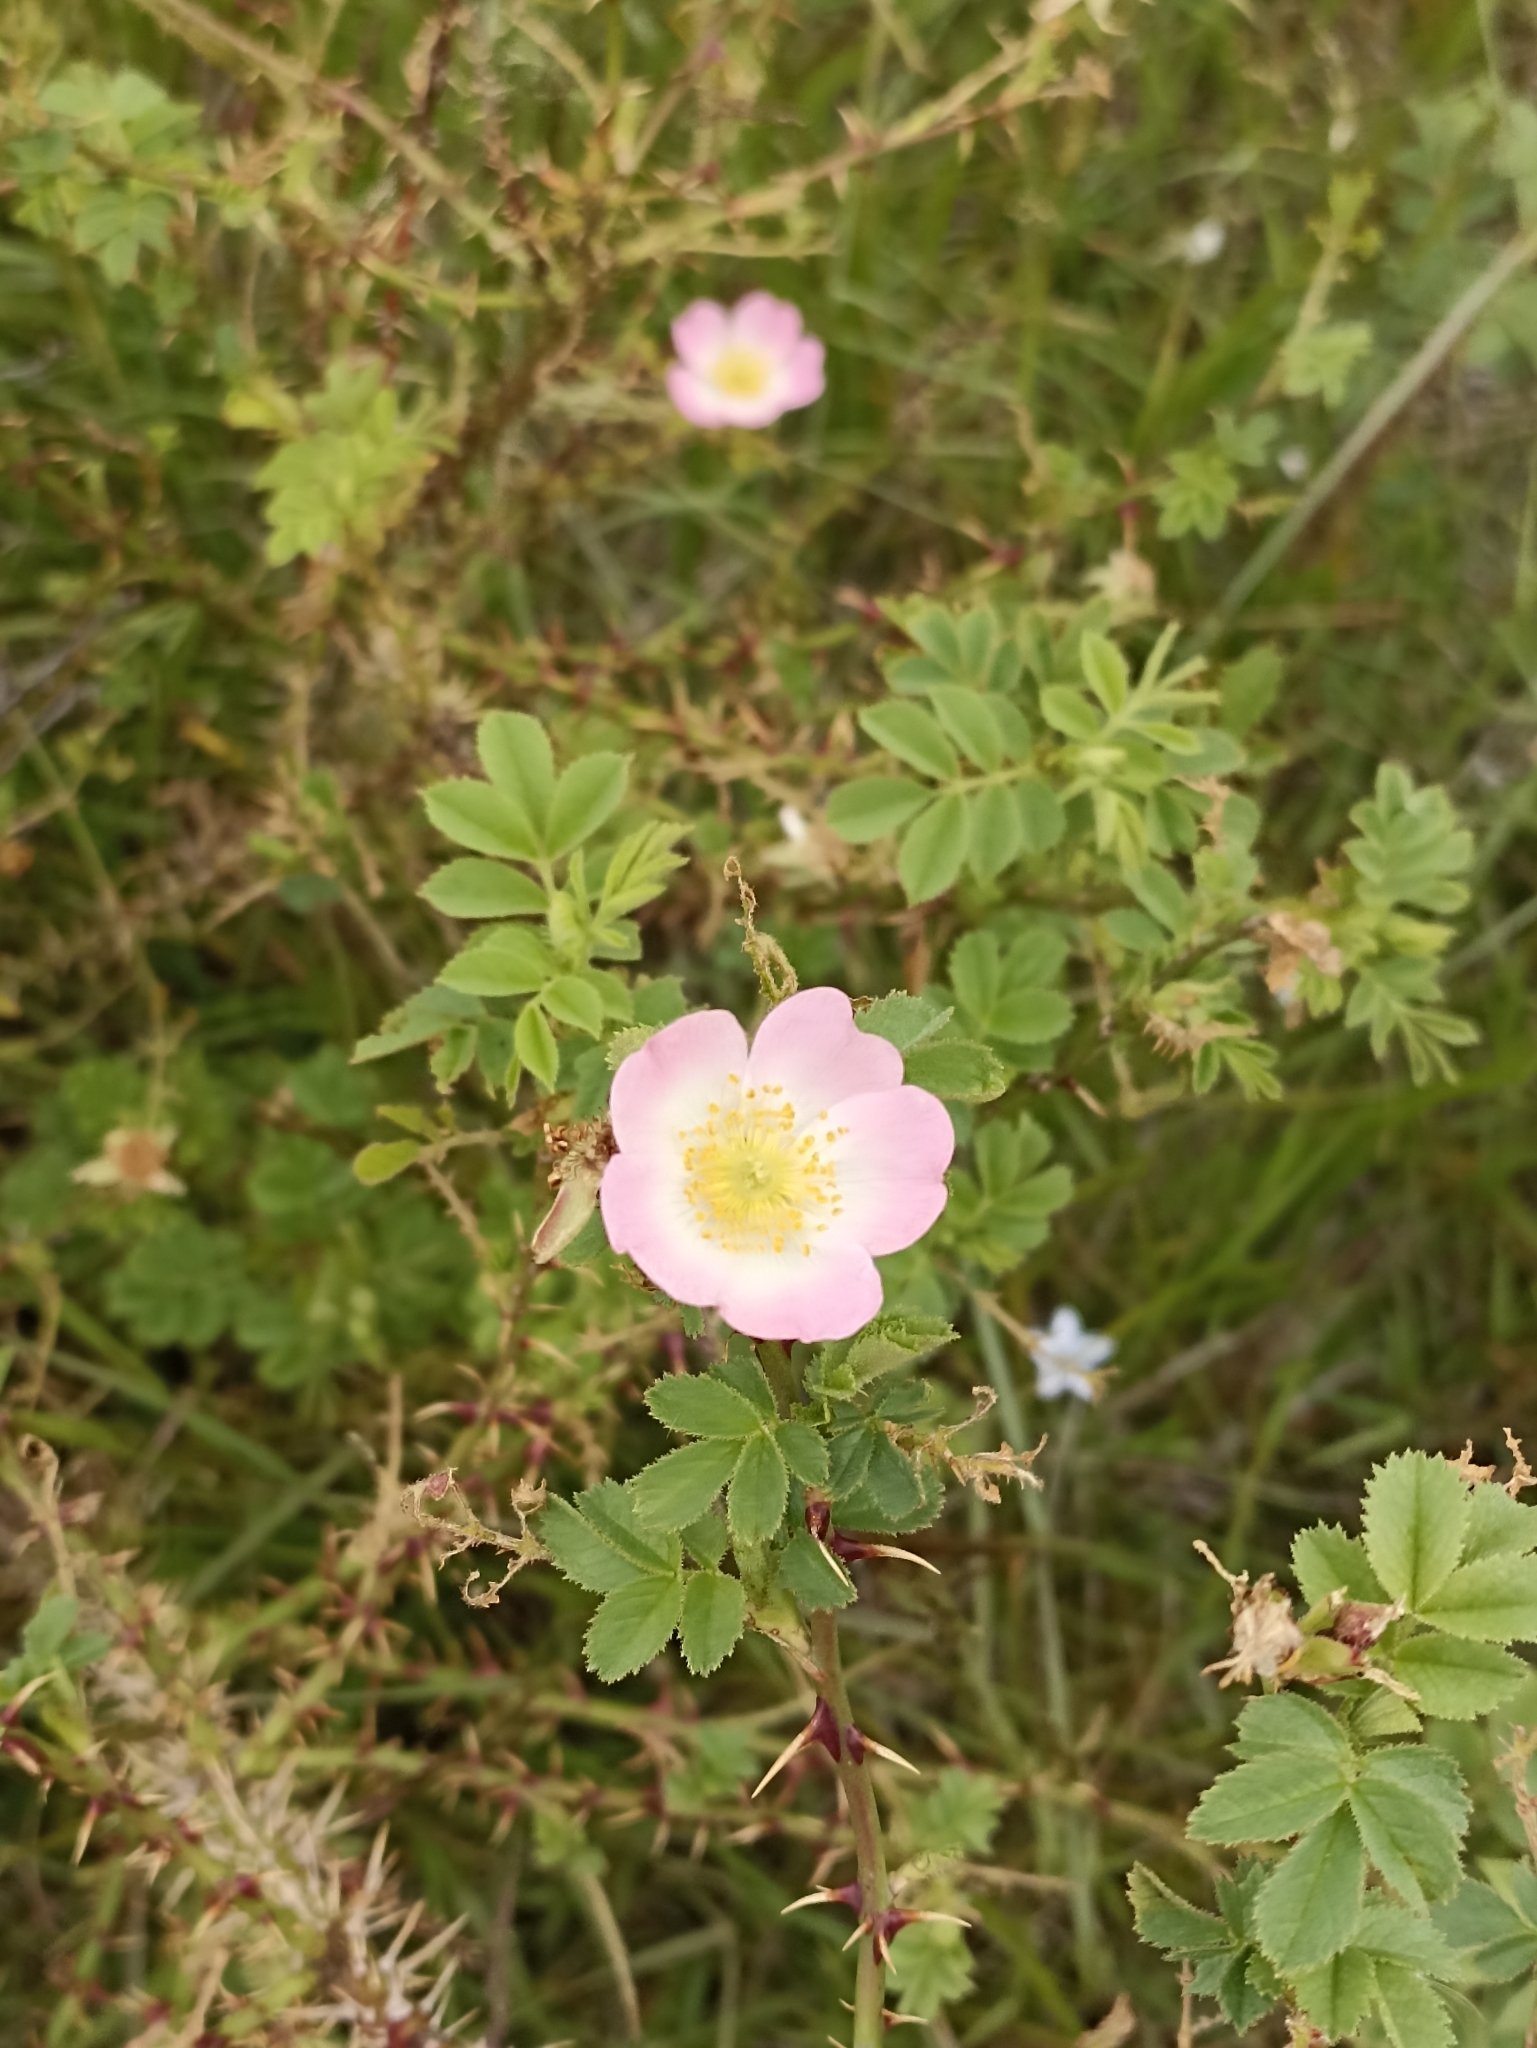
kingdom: Plantae
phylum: Tracheophyta
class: Magnoliopsida
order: Rosales
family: Rosaceae
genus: Rosa
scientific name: Rosa rubiginosa
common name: Sweet-briar
